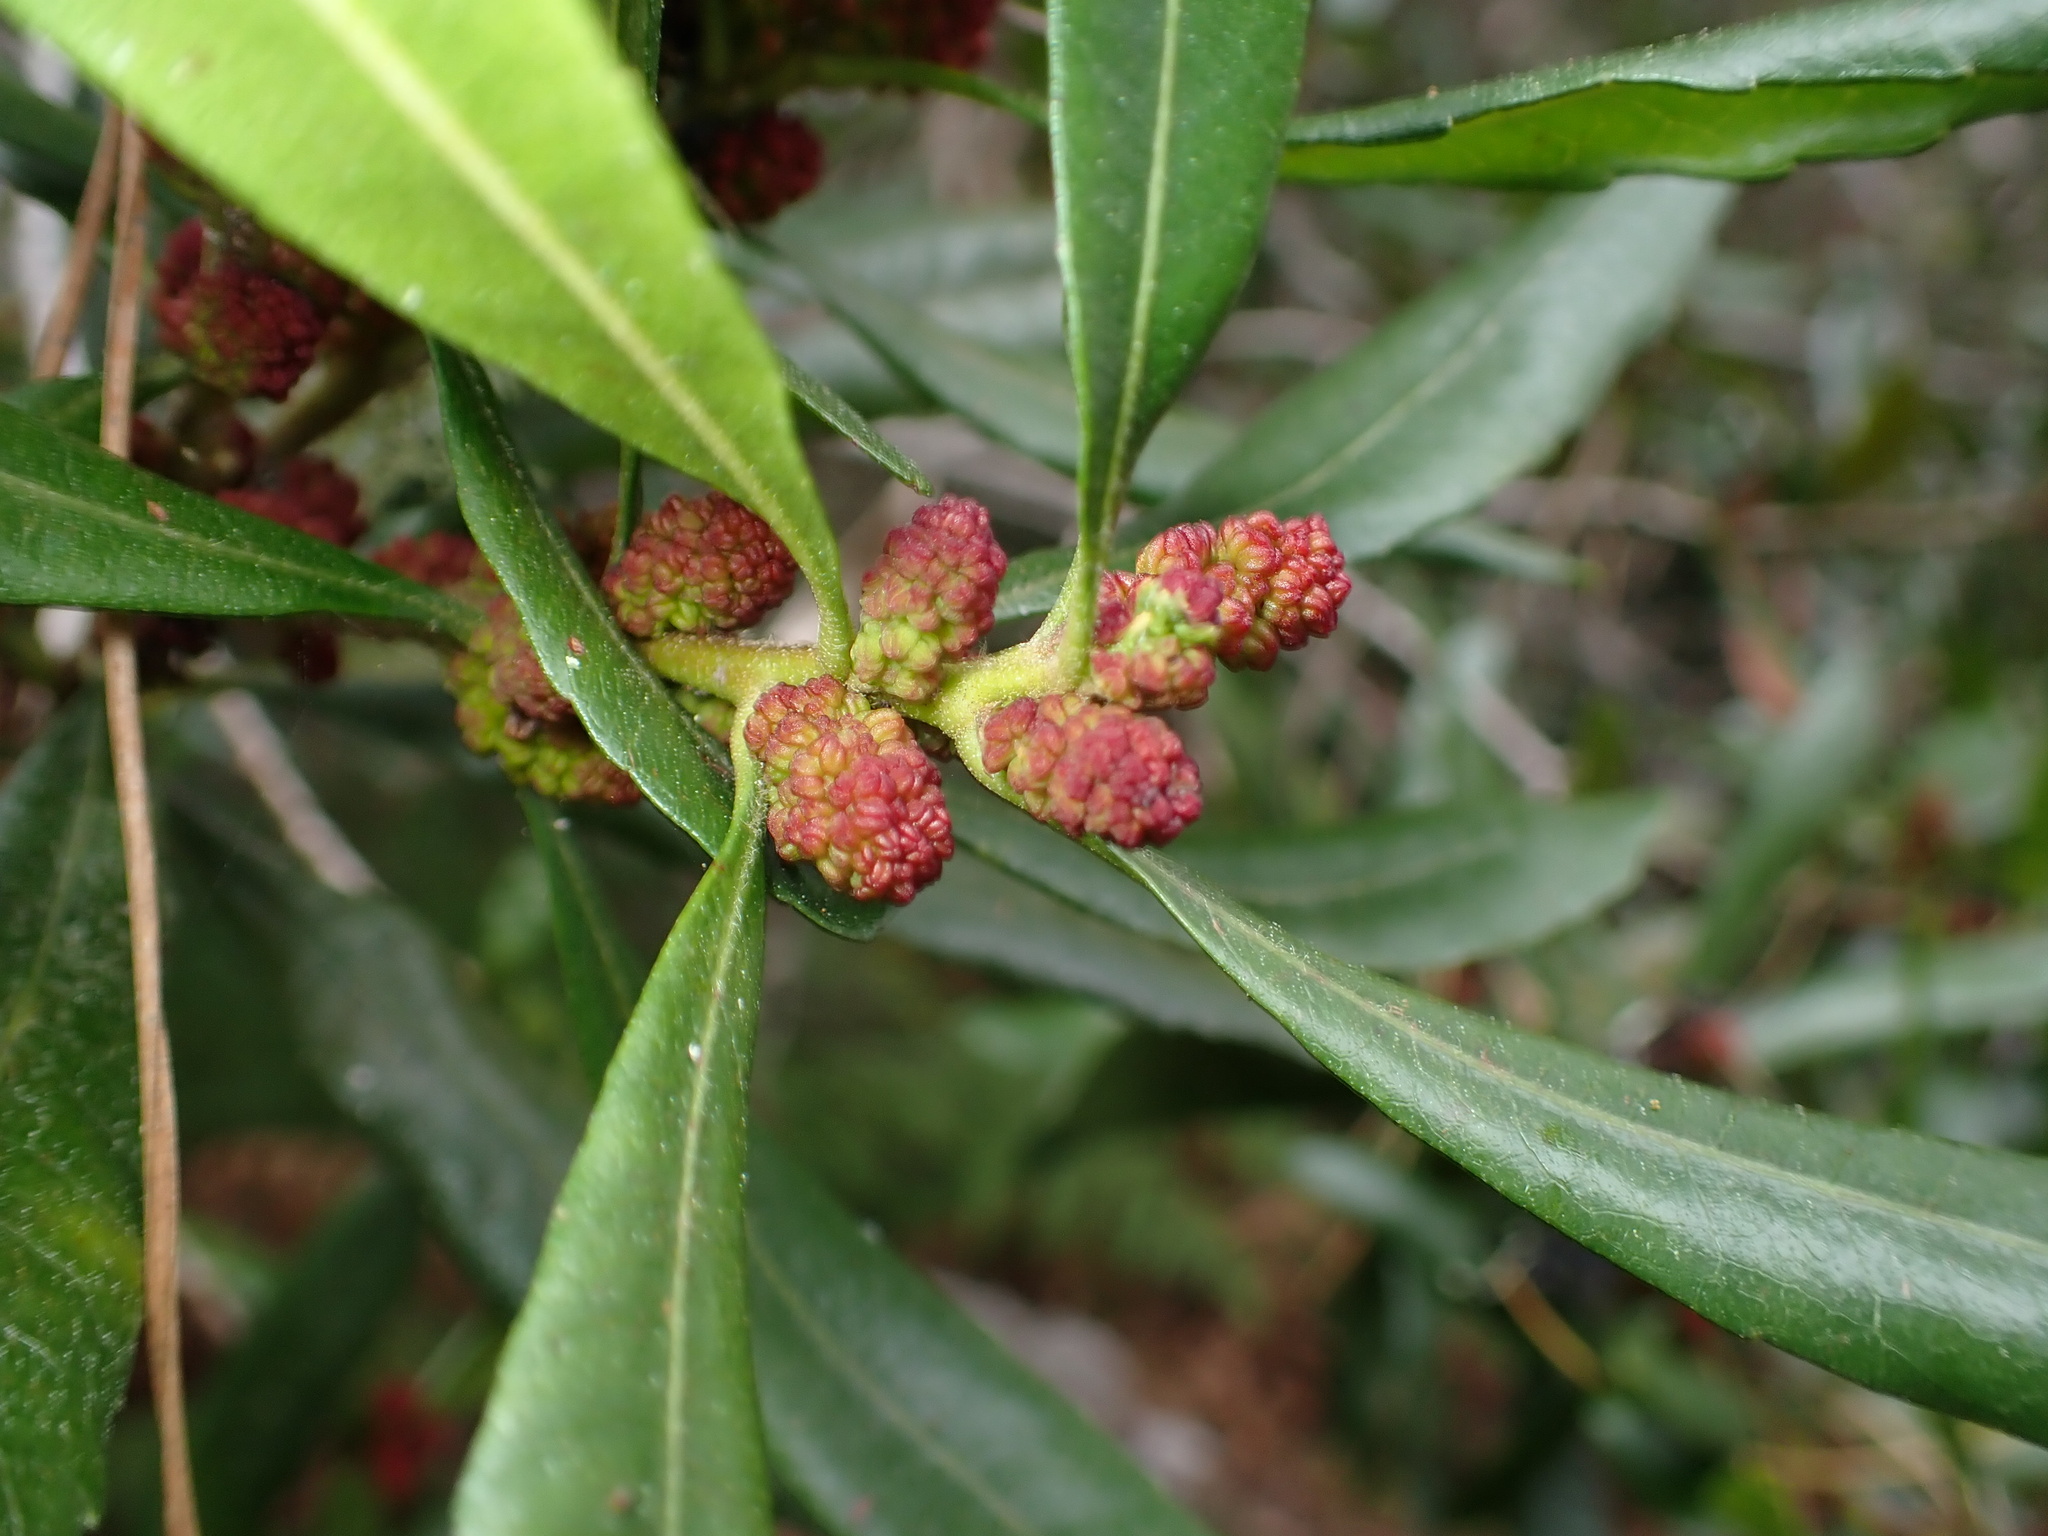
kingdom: Plantae
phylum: Tracheophyta
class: Magnoliopsida
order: Fagales
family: Myricaceae
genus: Morella
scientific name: Morella californica
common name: California wax-myrtle
